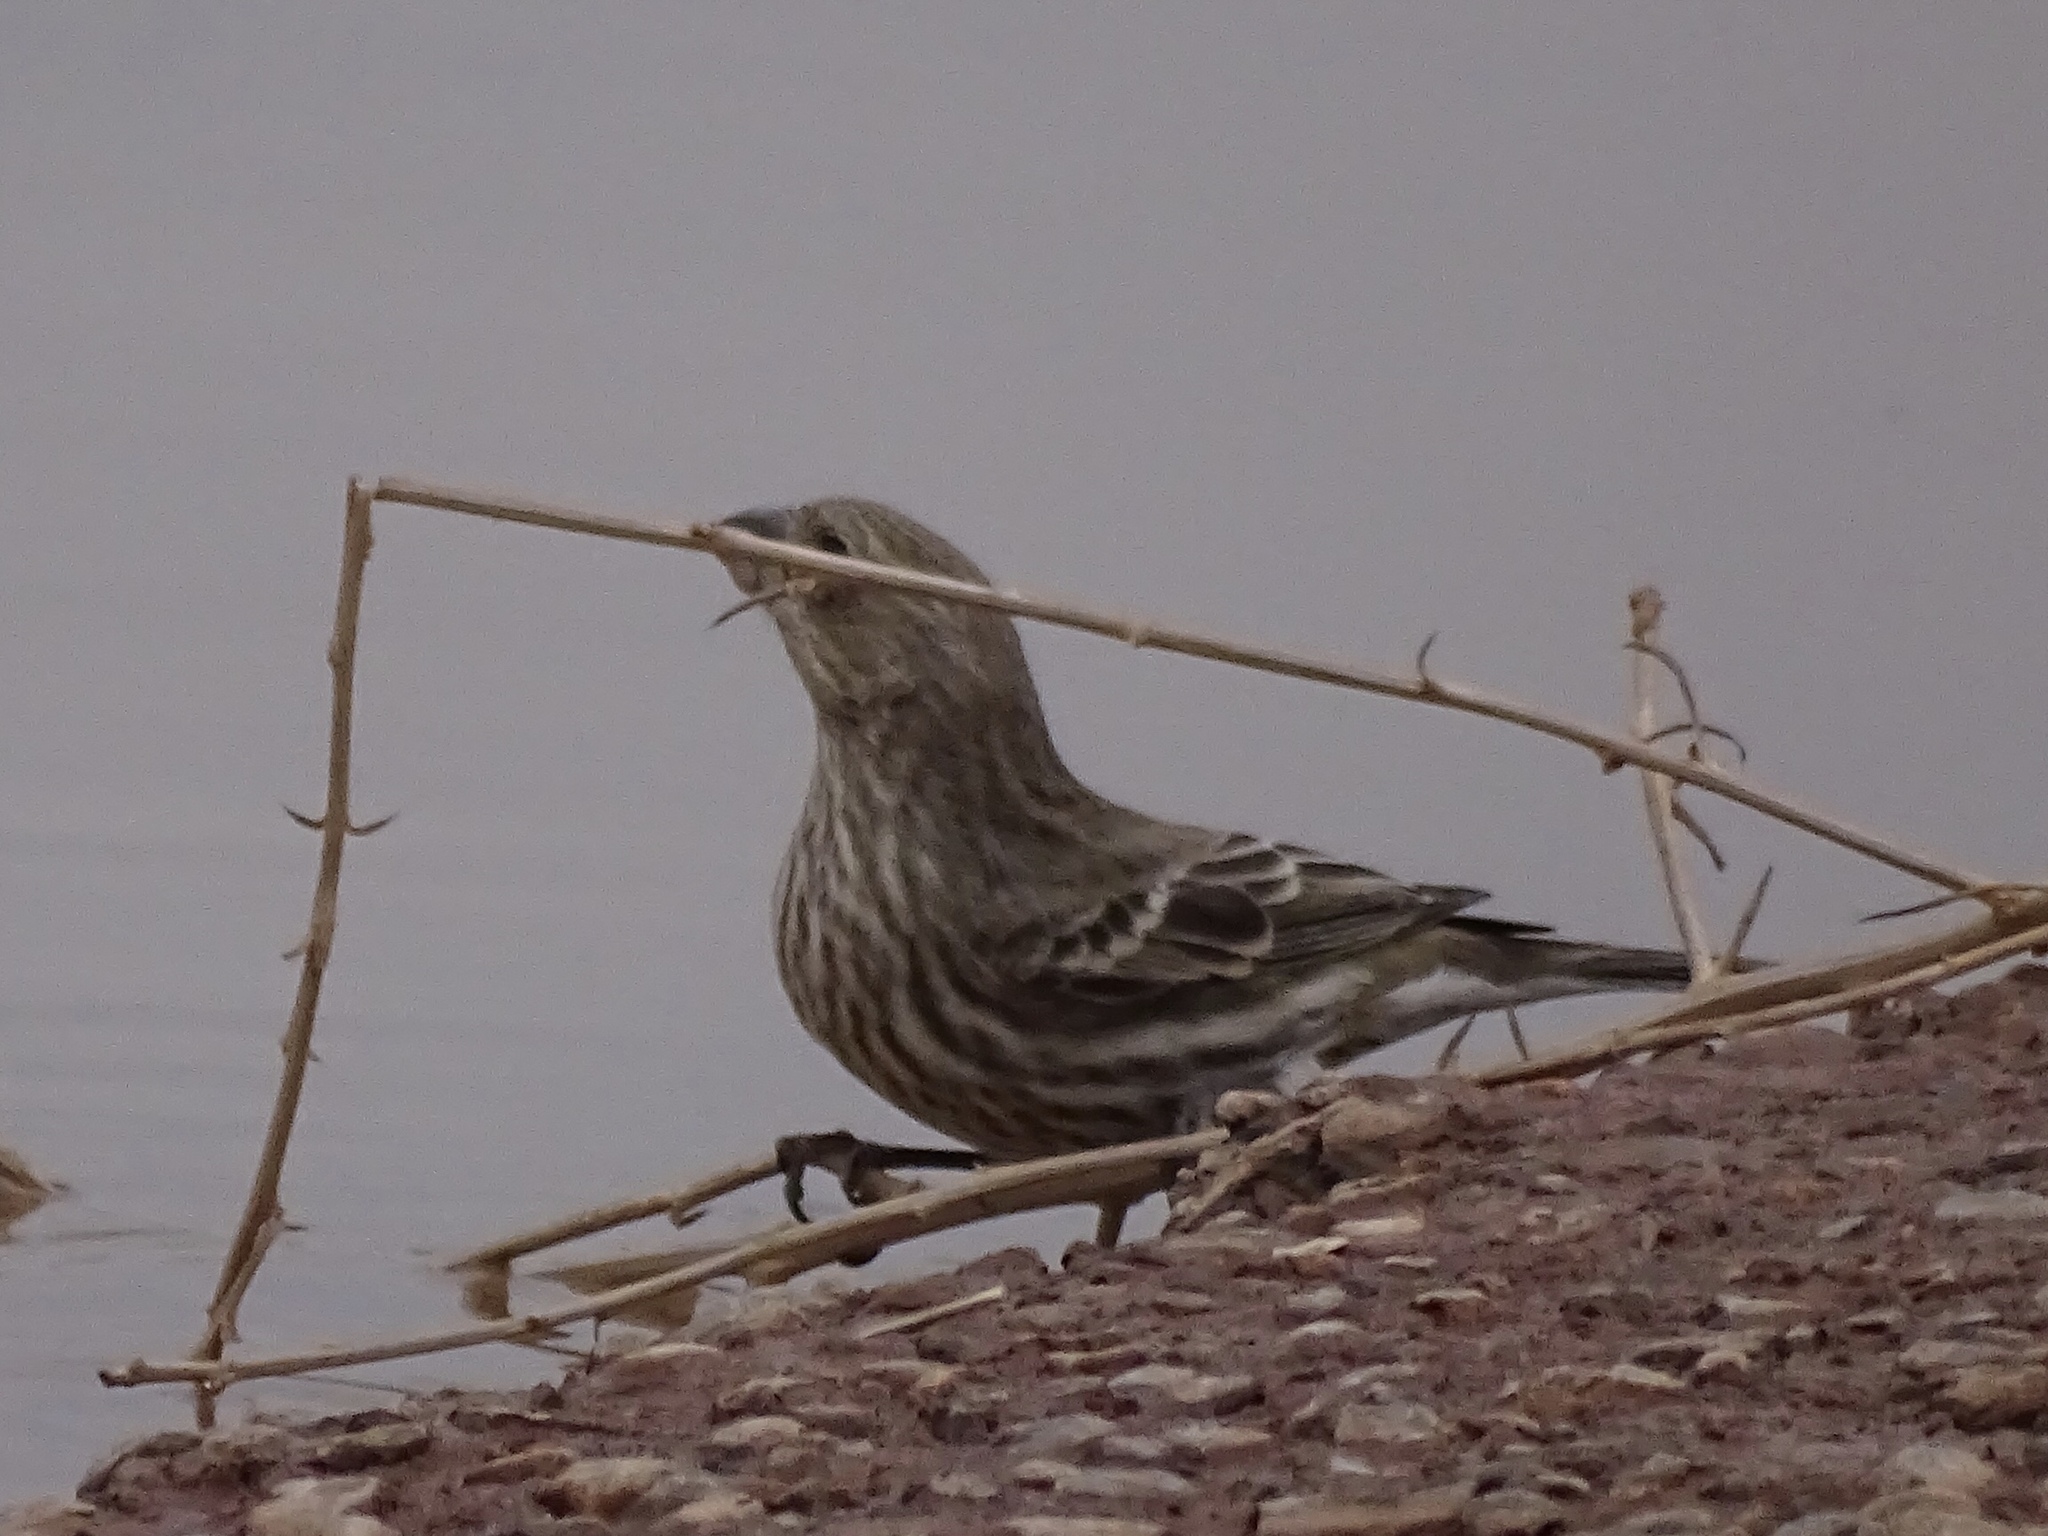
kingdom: Animalia
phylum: Chordata
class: Aves
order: Passeriformes
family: Fringillidae
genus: Haemorhous
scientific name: Haemorhous mexicanus
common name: House finch
